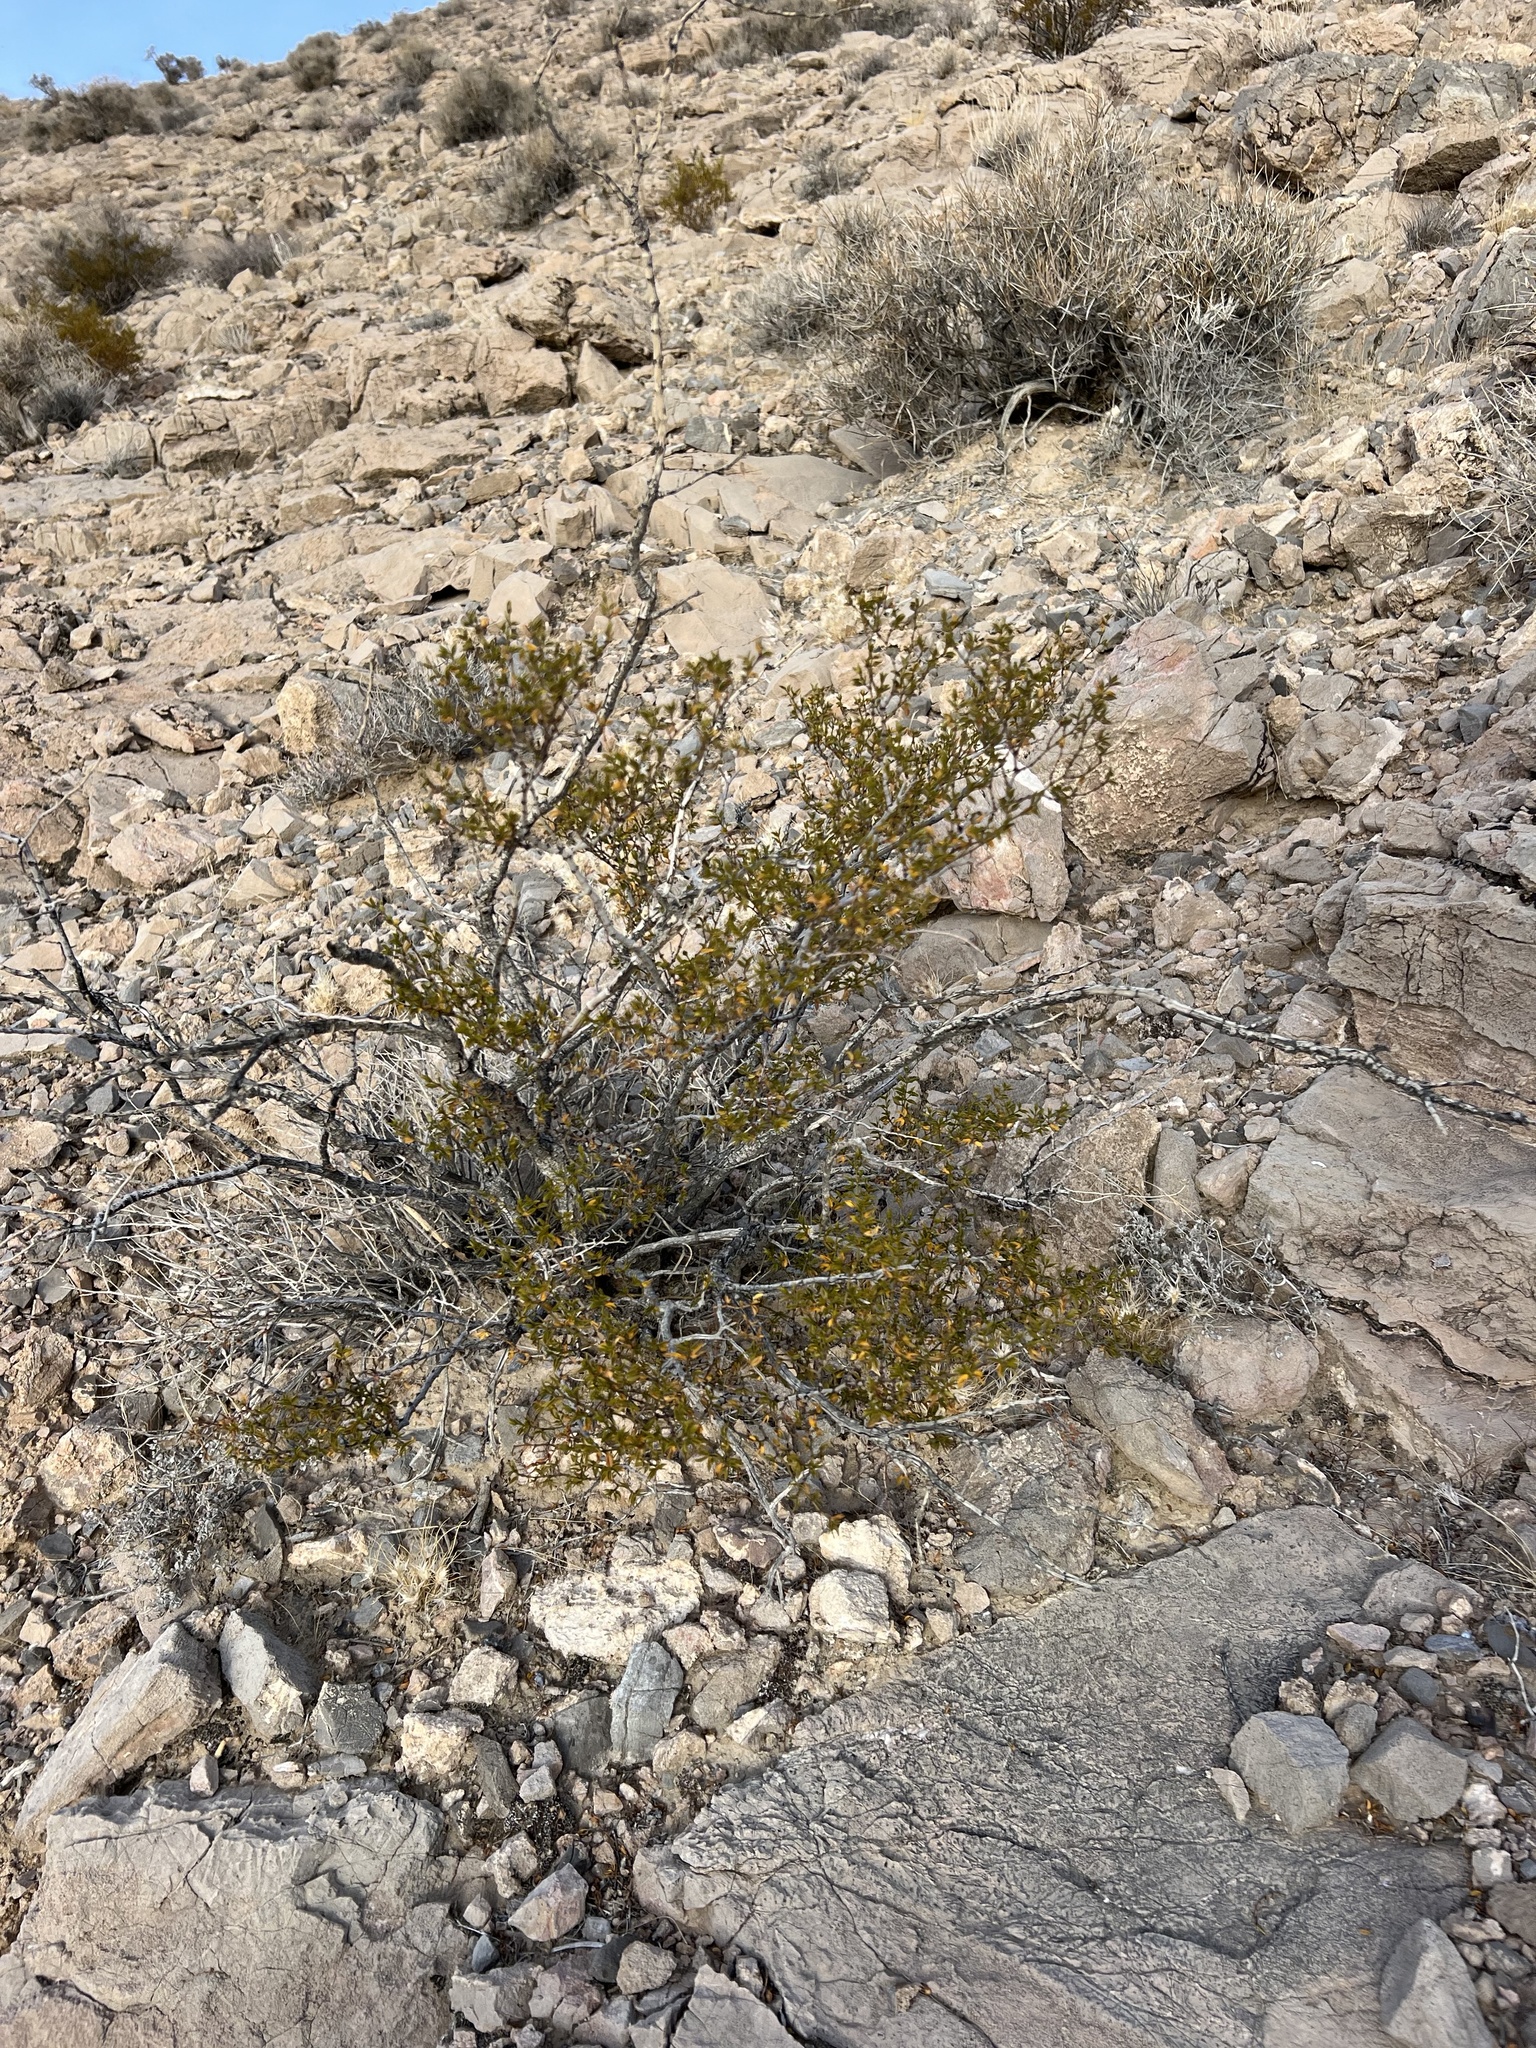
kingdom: Plantae
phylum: Tracheophyta
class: Magnoliopsida
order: Zygophyllales
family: Zygophyllaceae
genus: Larrea
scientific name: Larrea tridentata
